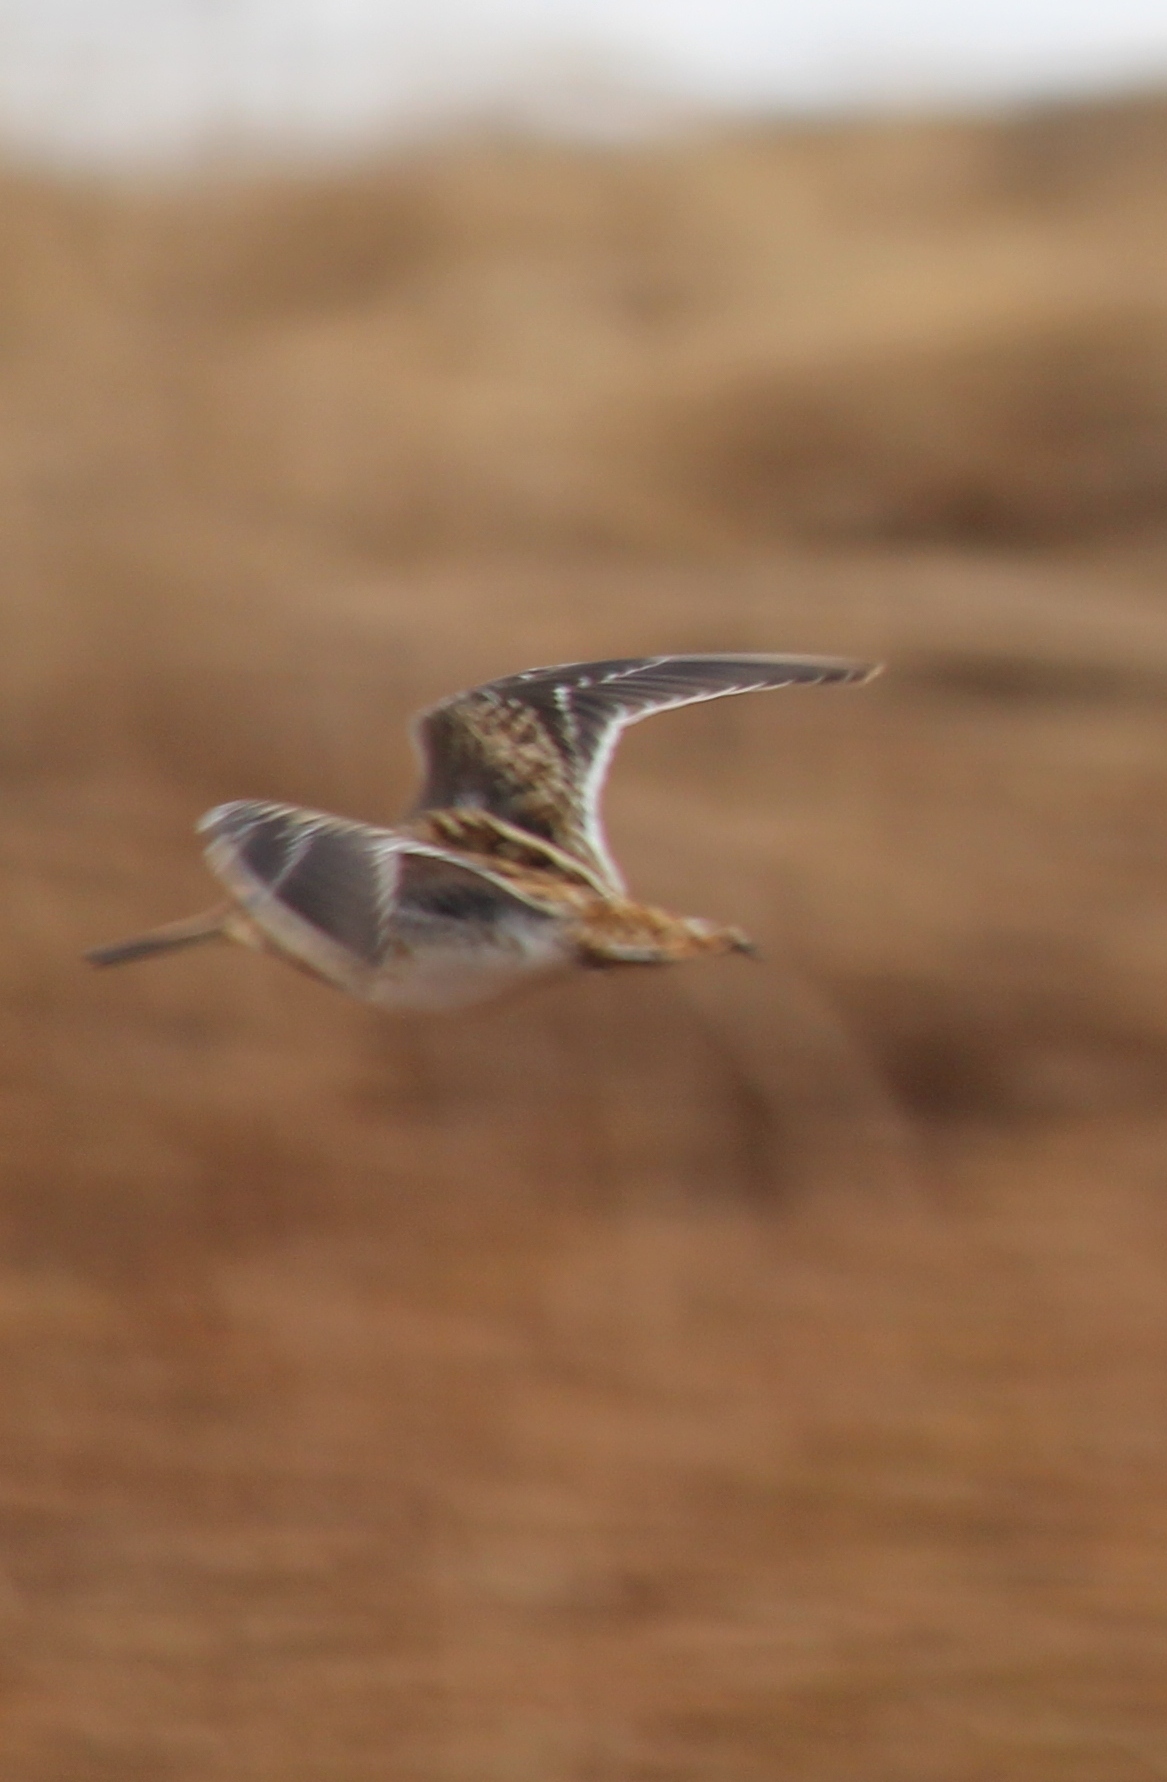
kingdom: Animalia
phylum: Chordata
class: Aves
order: Charadriiformes
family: Scolopacidae
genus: Gallinago
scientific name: Gallinago gallinago
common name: Common snipe
